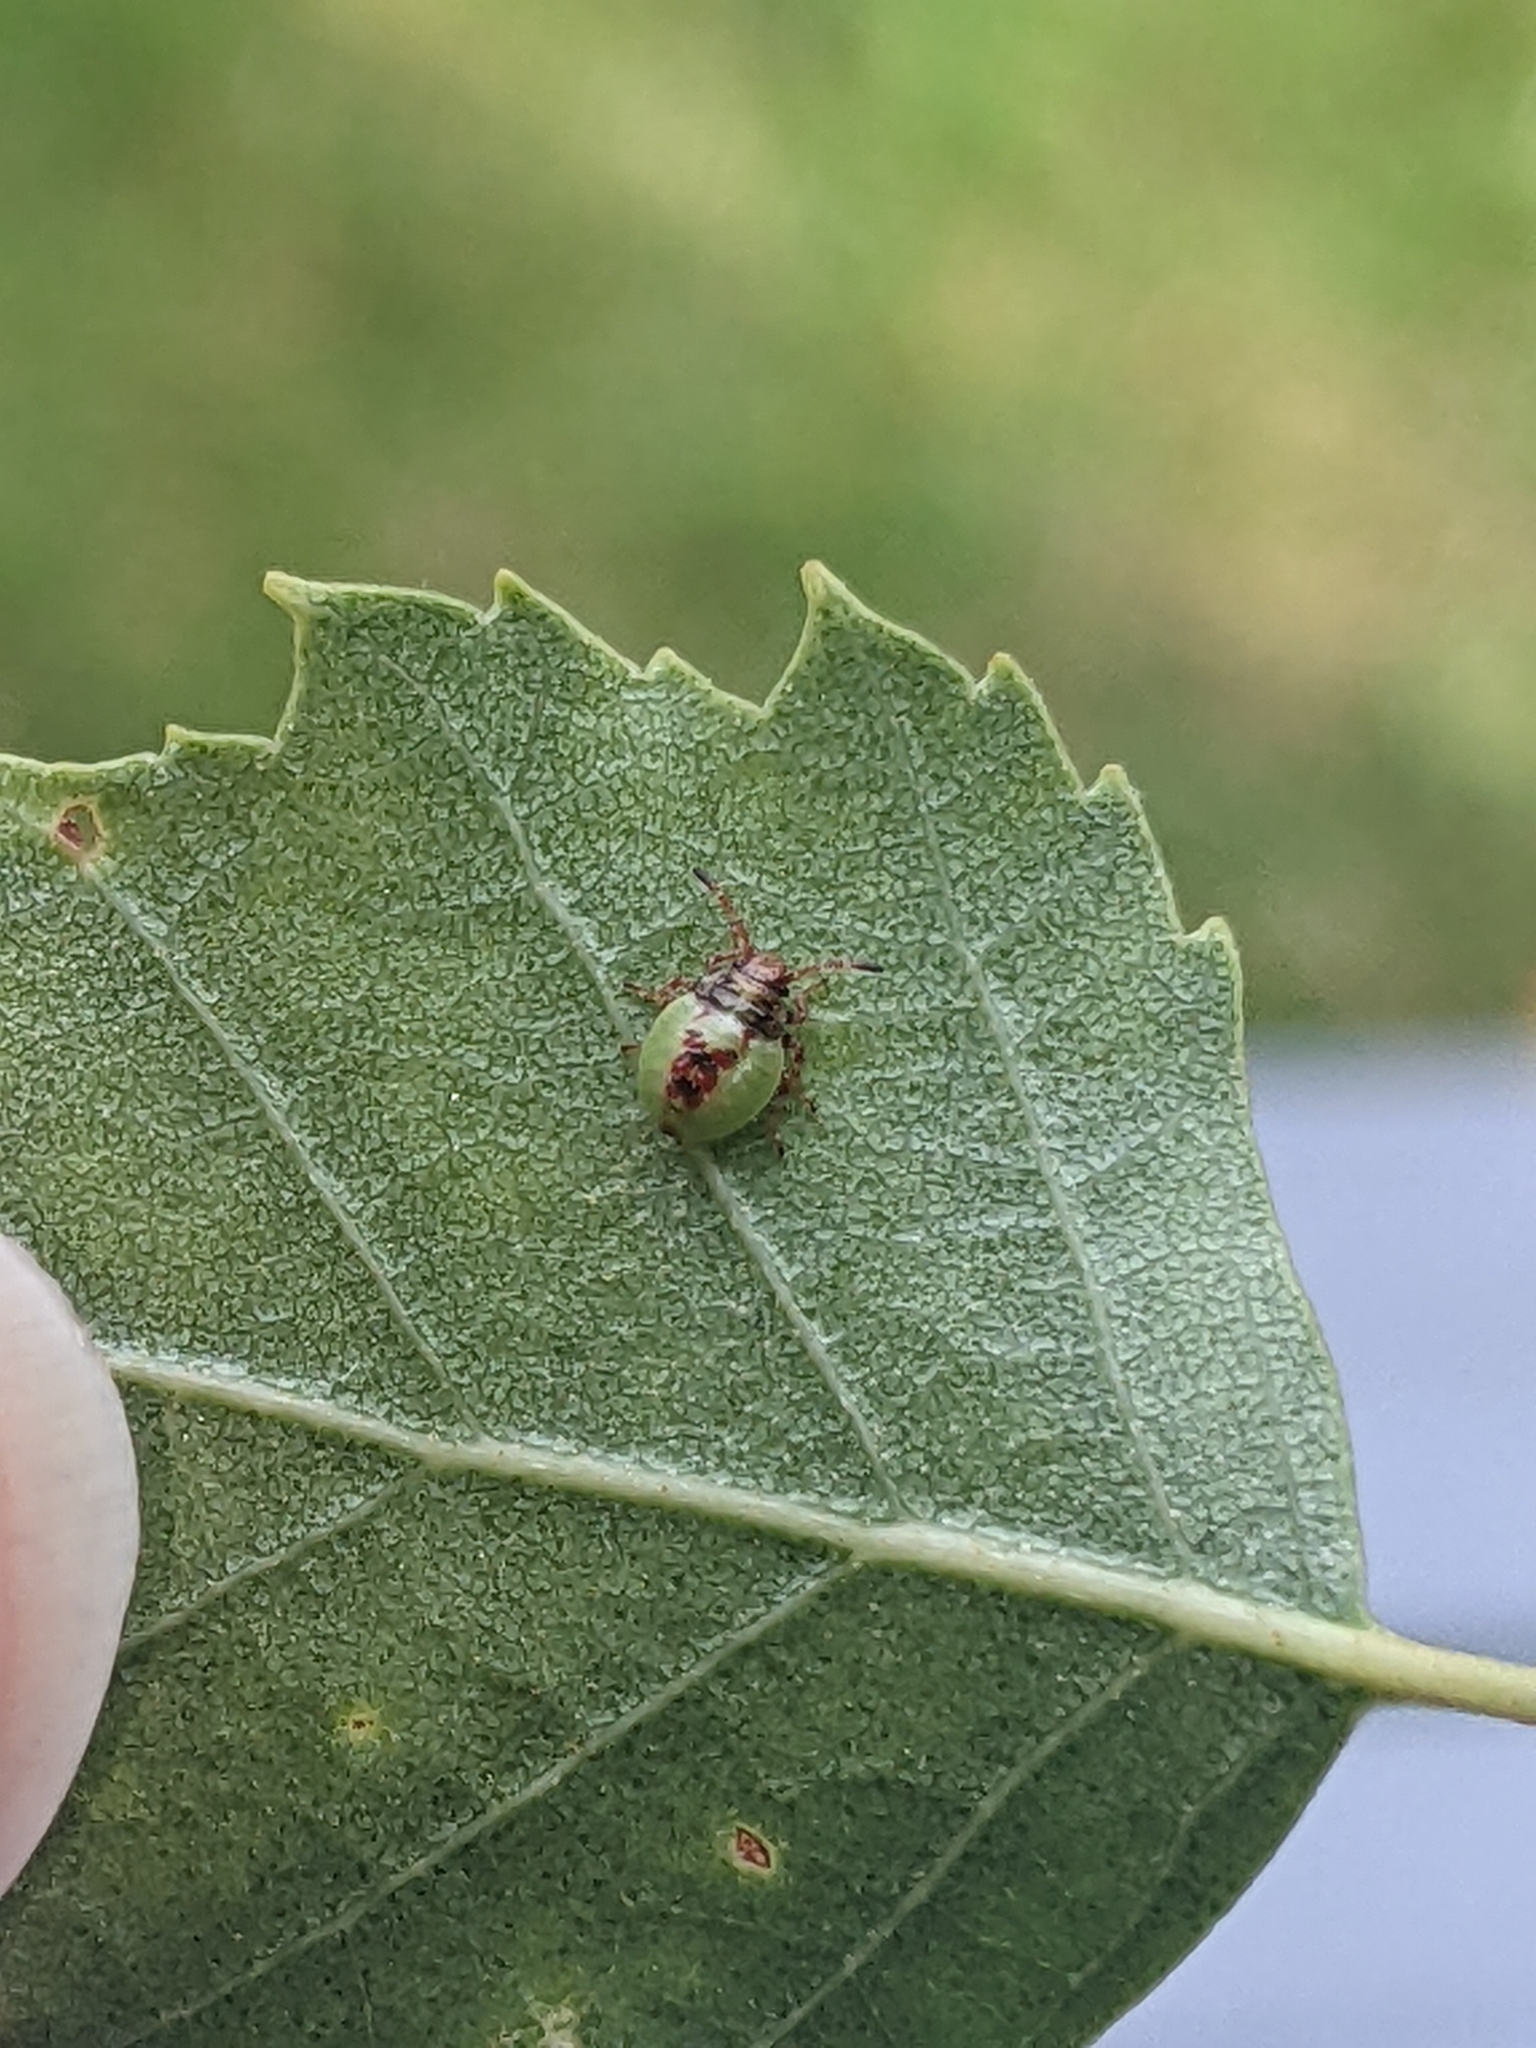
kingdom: Animalia
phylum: Arthropoda
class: Insecta
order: Hemiptera
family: Acanthosomatidae
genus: Elasmostethus
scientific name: Elasmostethus interstinctus
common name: Birch shieldbug
